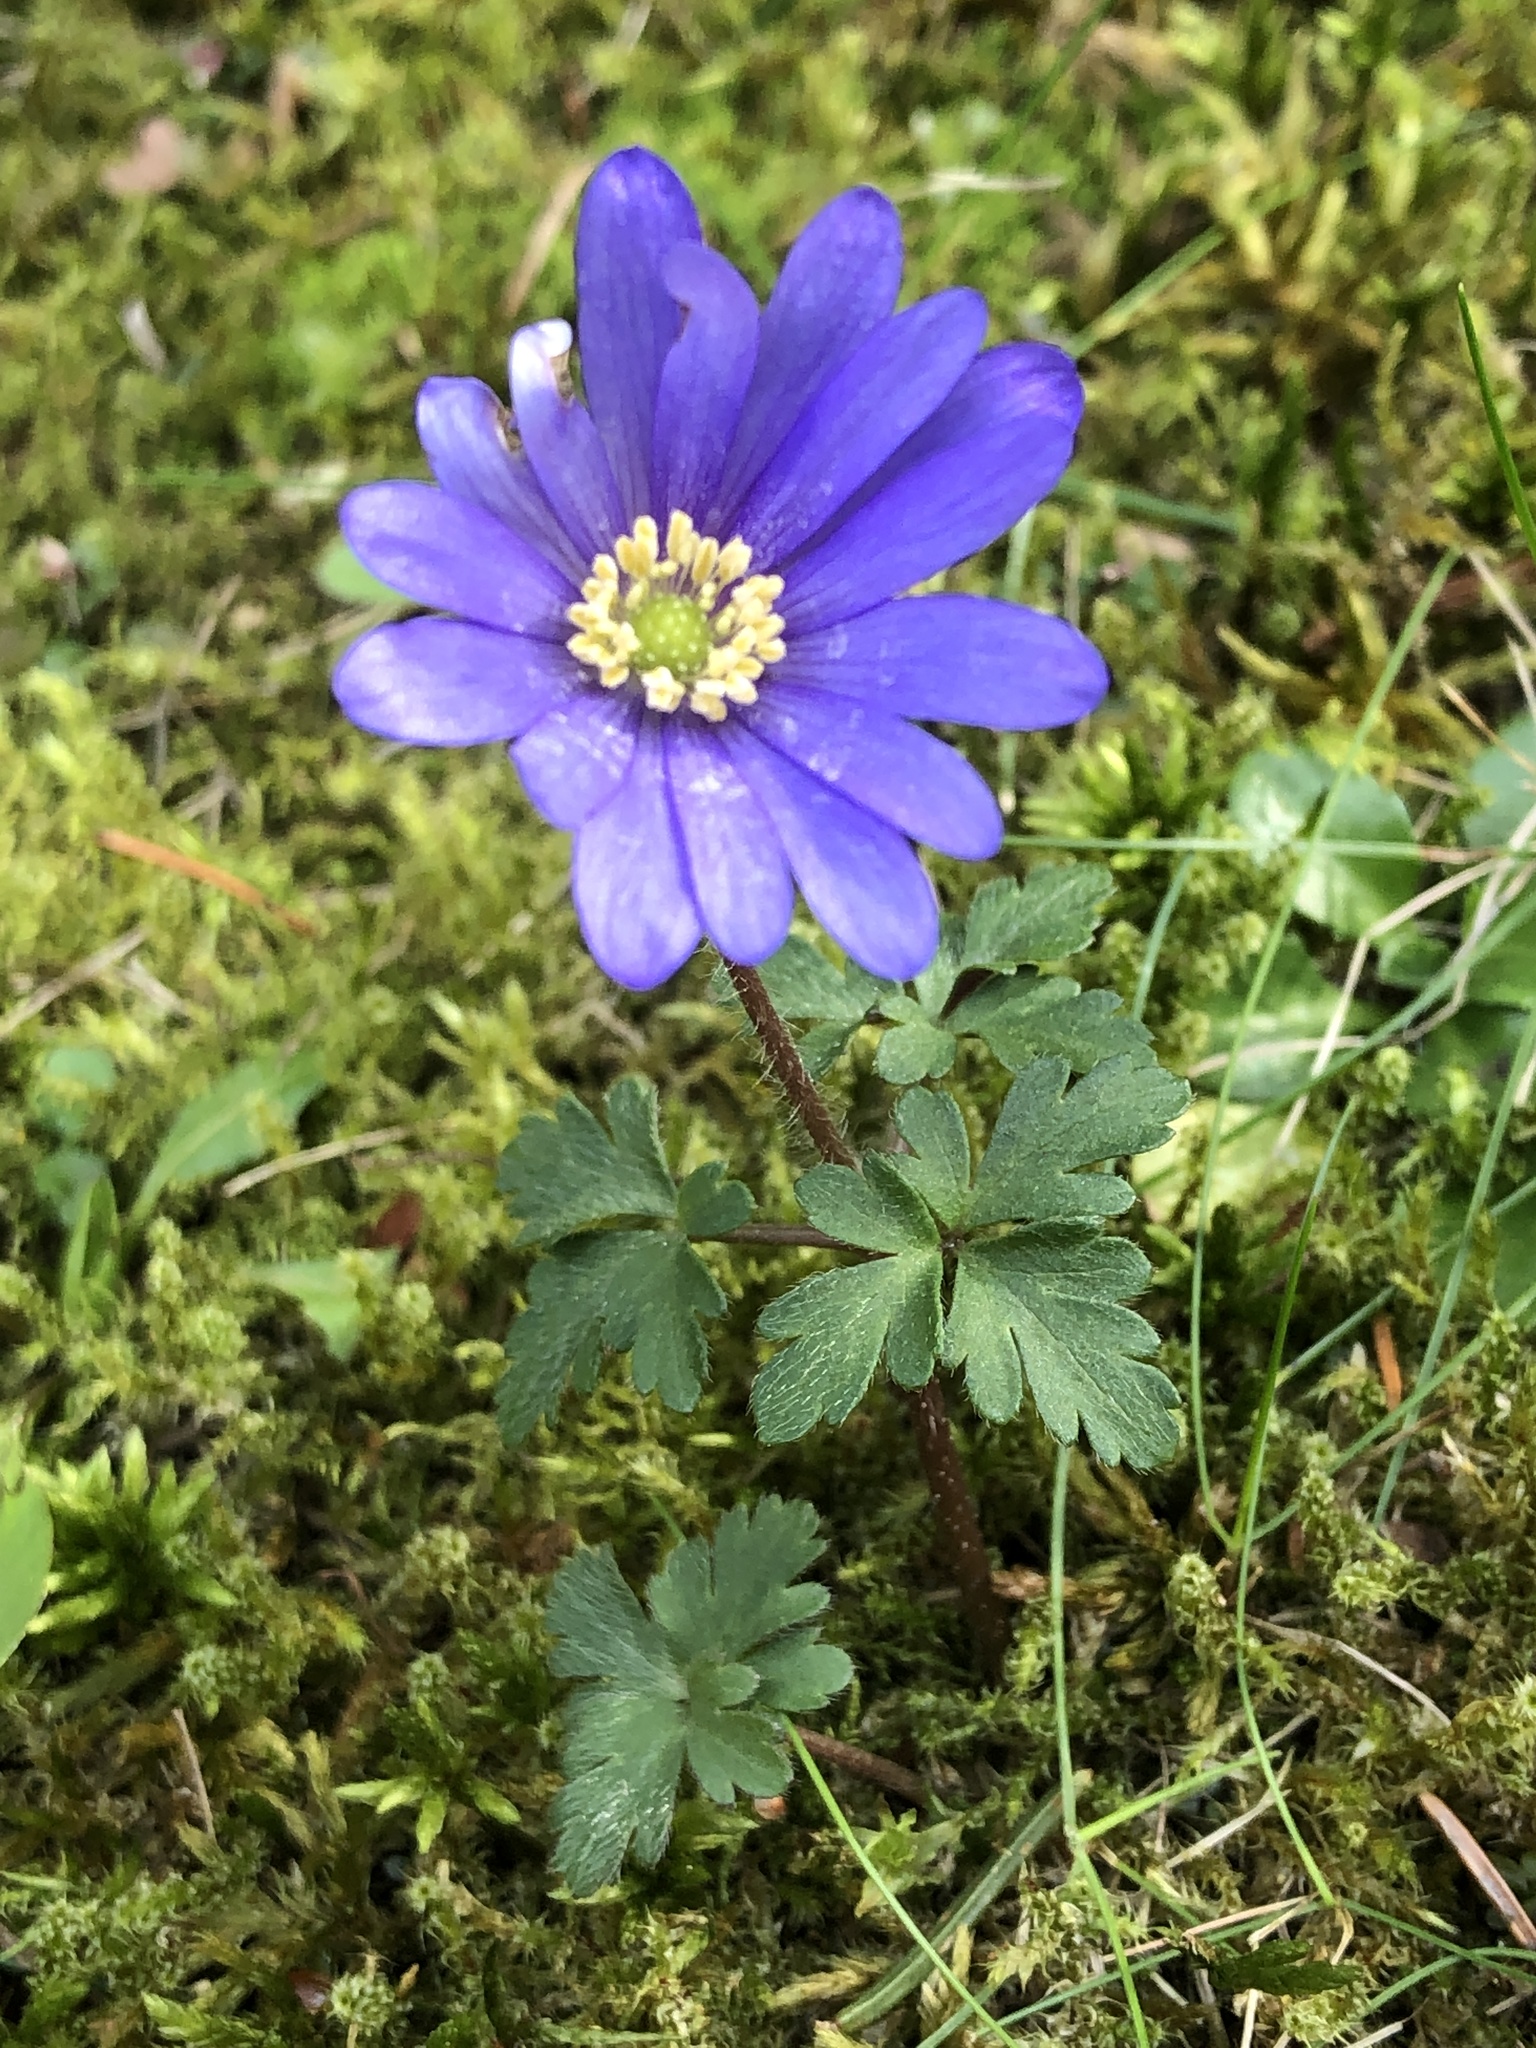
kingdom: Plantae
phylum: Tracheophyta
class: Magnoliopsida
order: Ranunculales
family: Ranunculaceae
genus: Anemone
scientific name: Anemone blanda
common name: Balkan anemone
